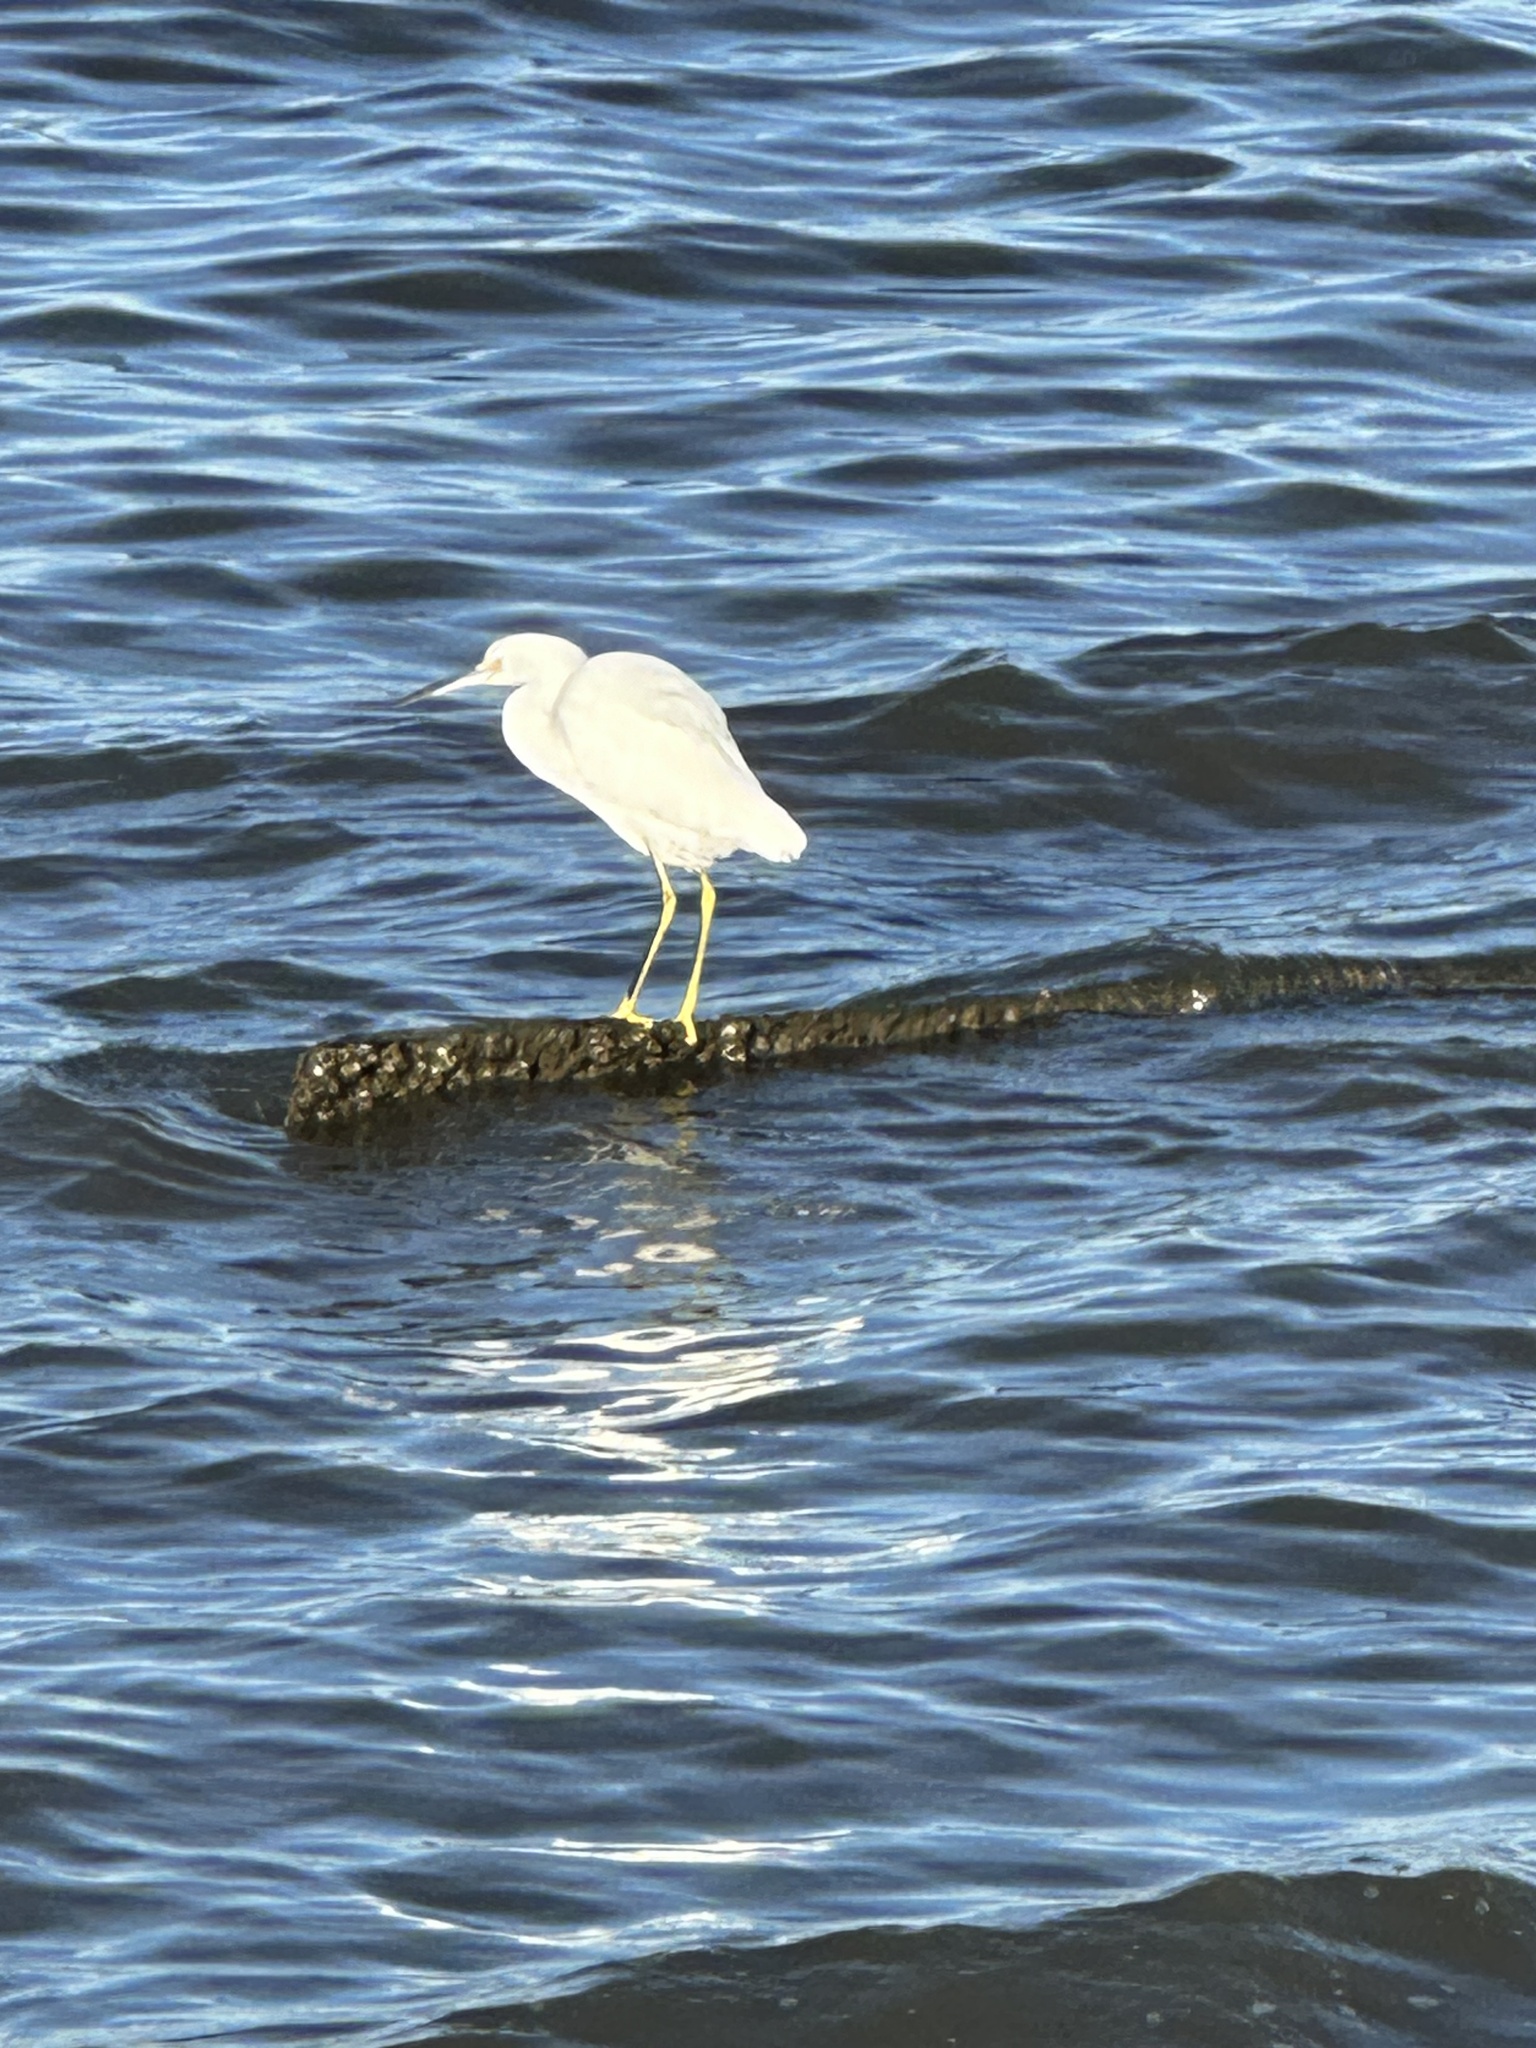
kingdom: Animalia
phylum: Chordata
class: Aves
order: Pelecaniformes
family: Ardeidae
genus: Egretta
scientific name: Egretta thula
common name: Snowy egret
